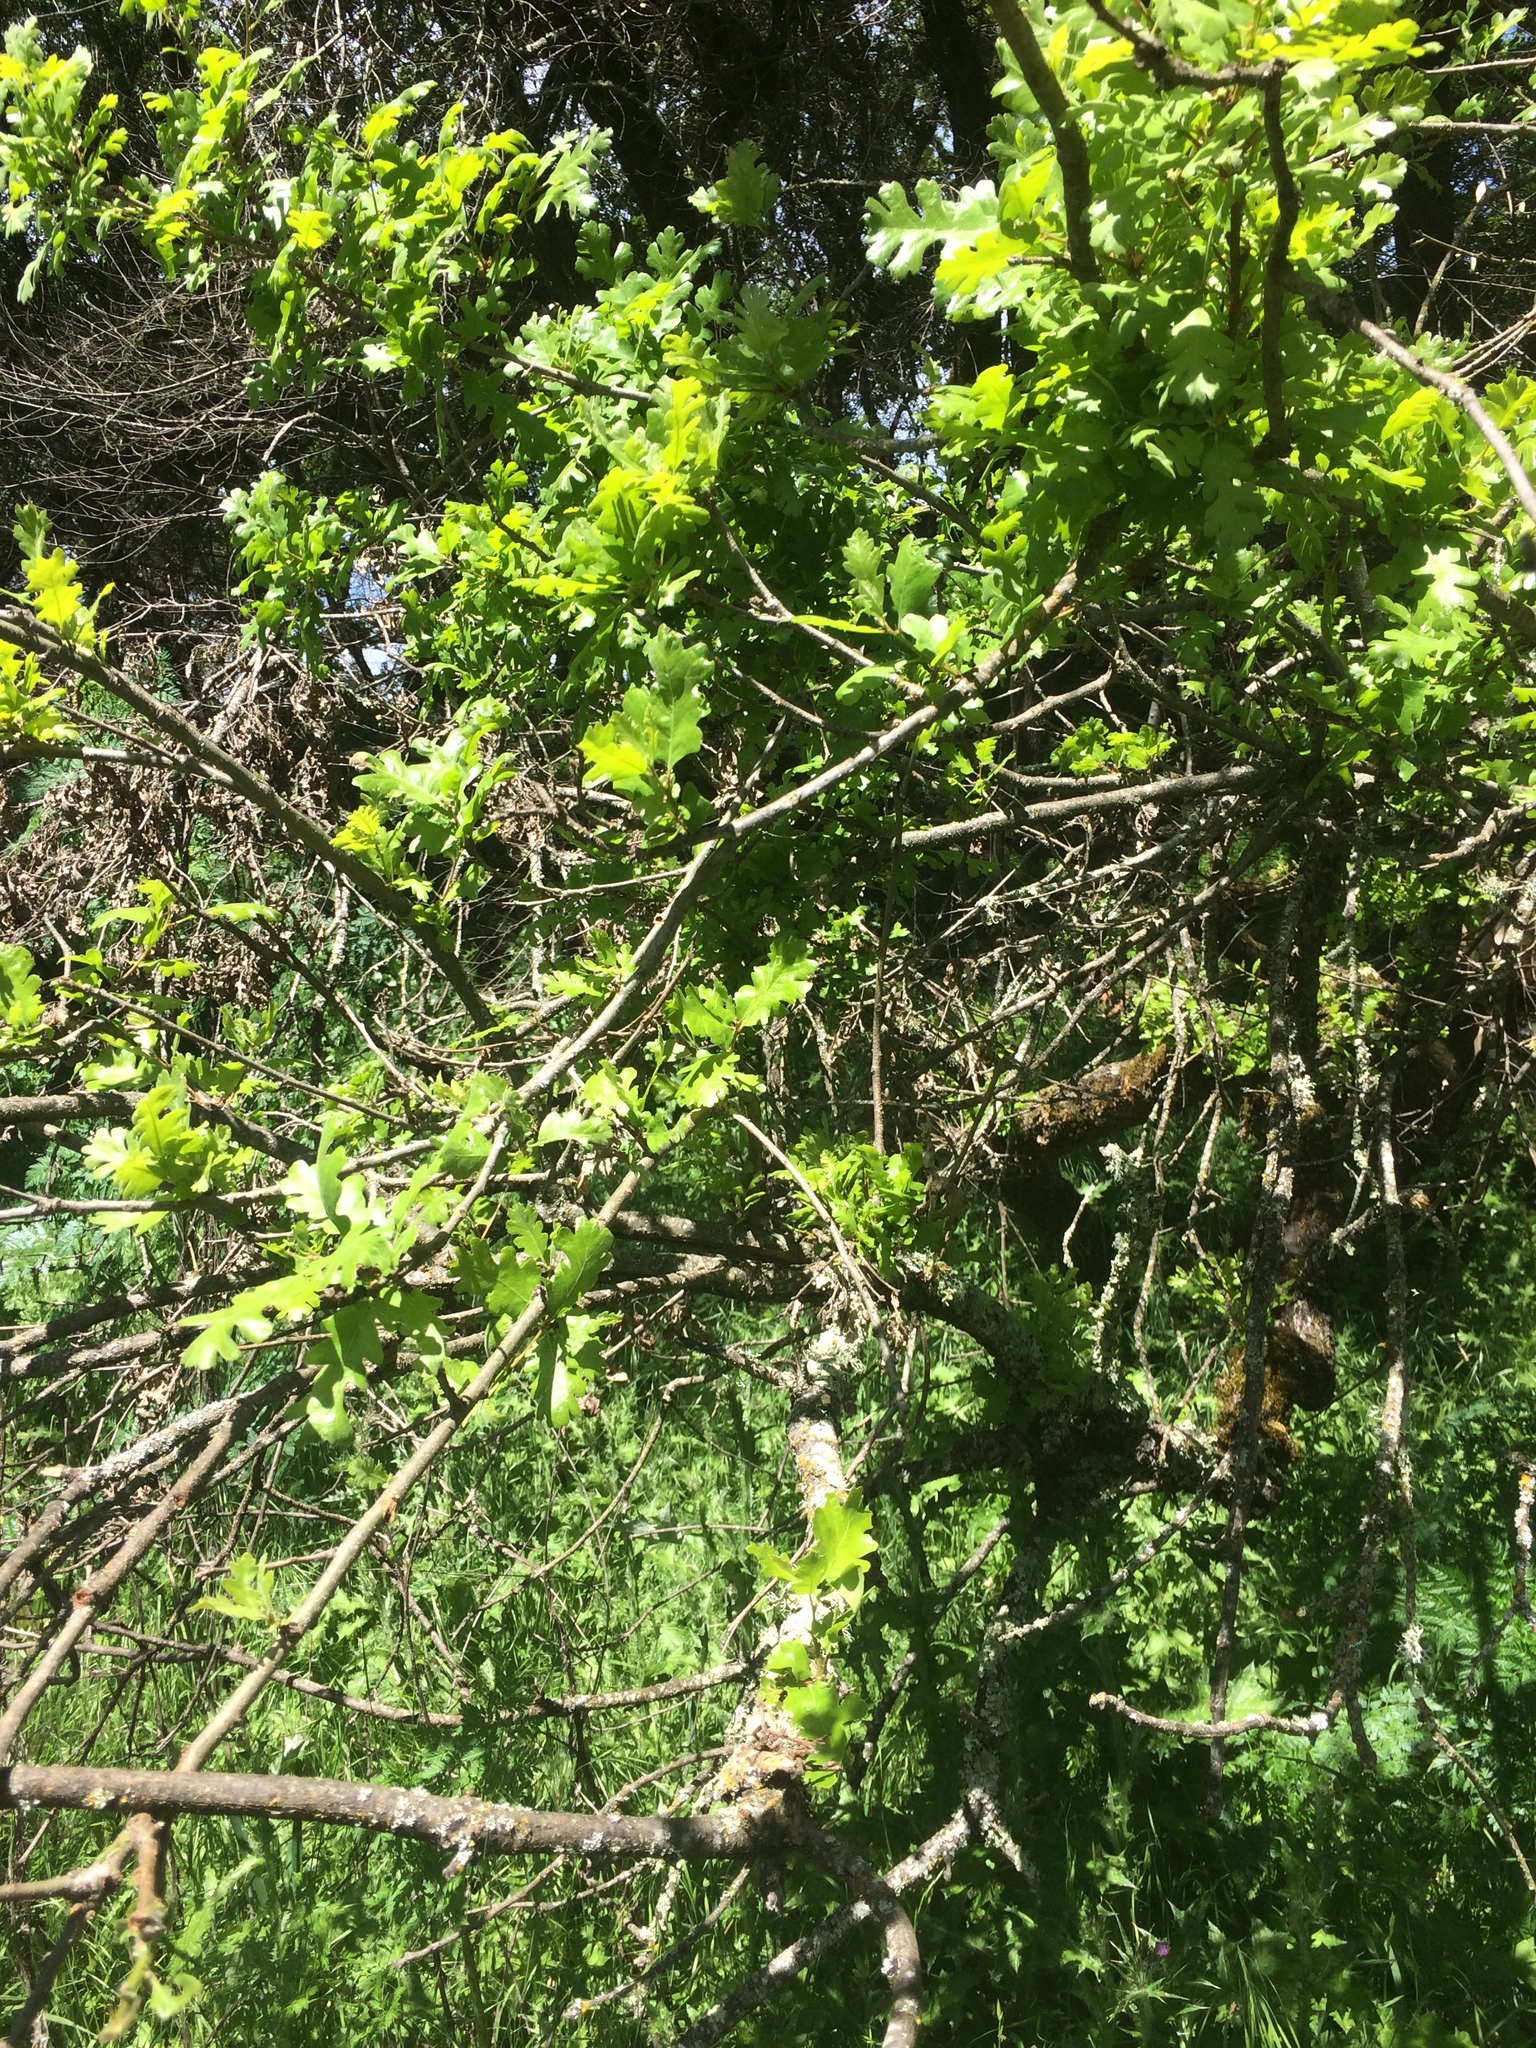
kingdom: Plantae
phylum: Tracheophyta
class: Magnoliopsida
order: Fagales
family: Fagaceae
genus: Quercus
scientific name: Quercus lobata
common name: Valley oak
